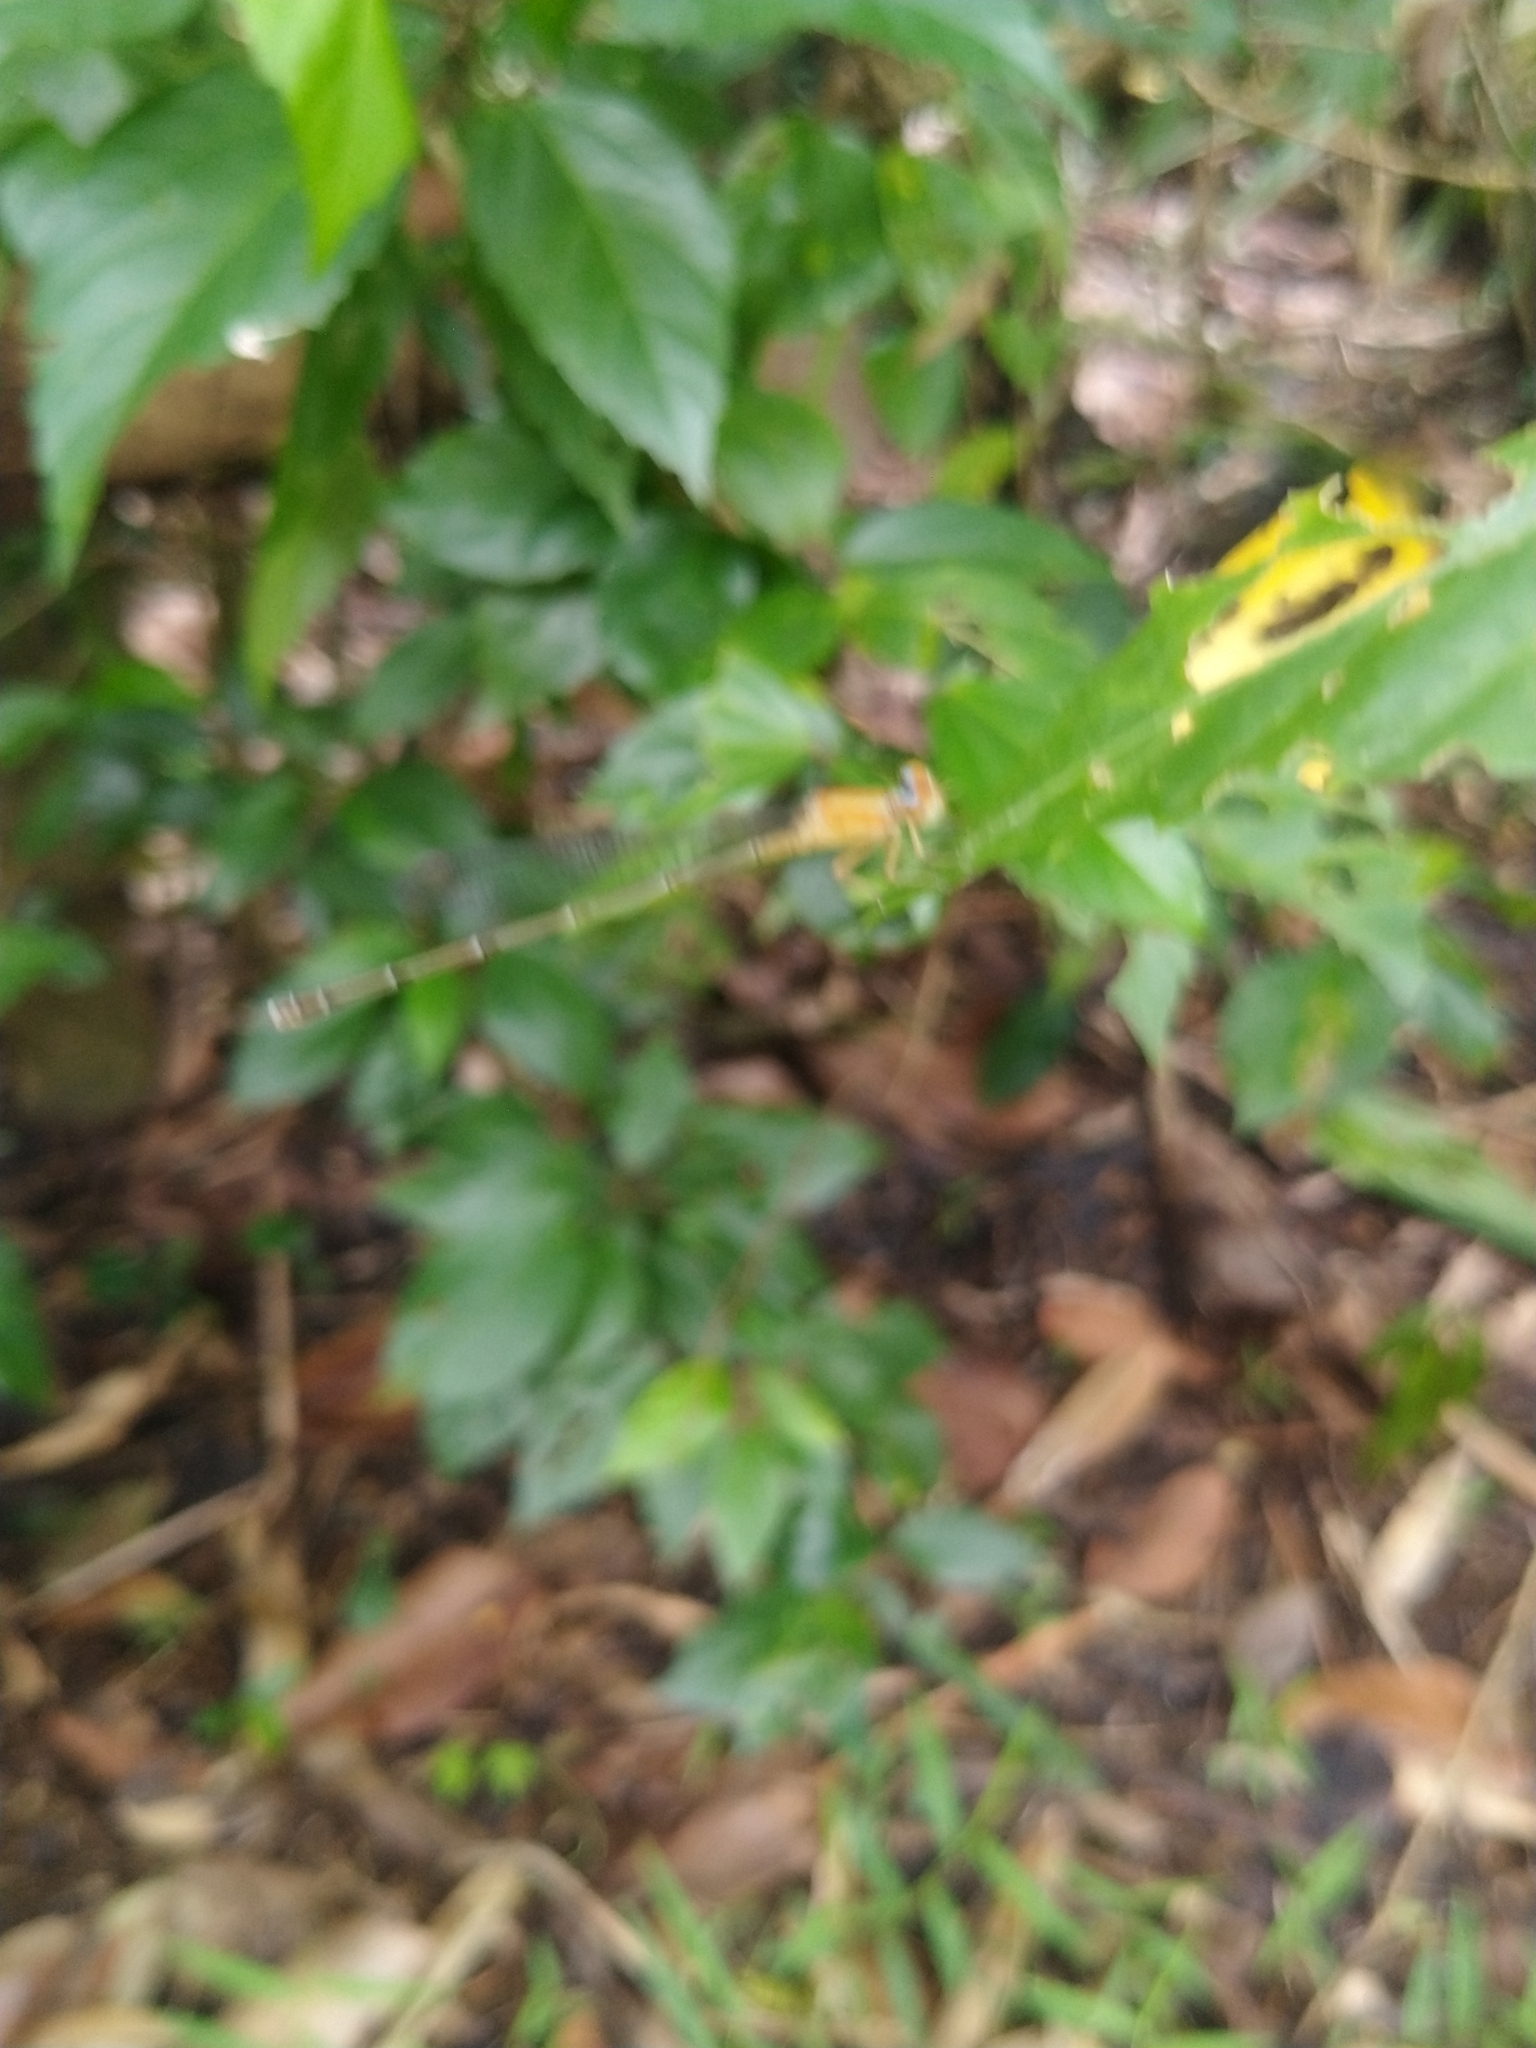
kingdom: Animalia
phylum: Arthropoda
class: Insecta
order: Odonata
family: Coenagrionidae
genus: Pseudagrion
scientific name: Pseudagrion microcephalum
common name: Blue riverdamsel
